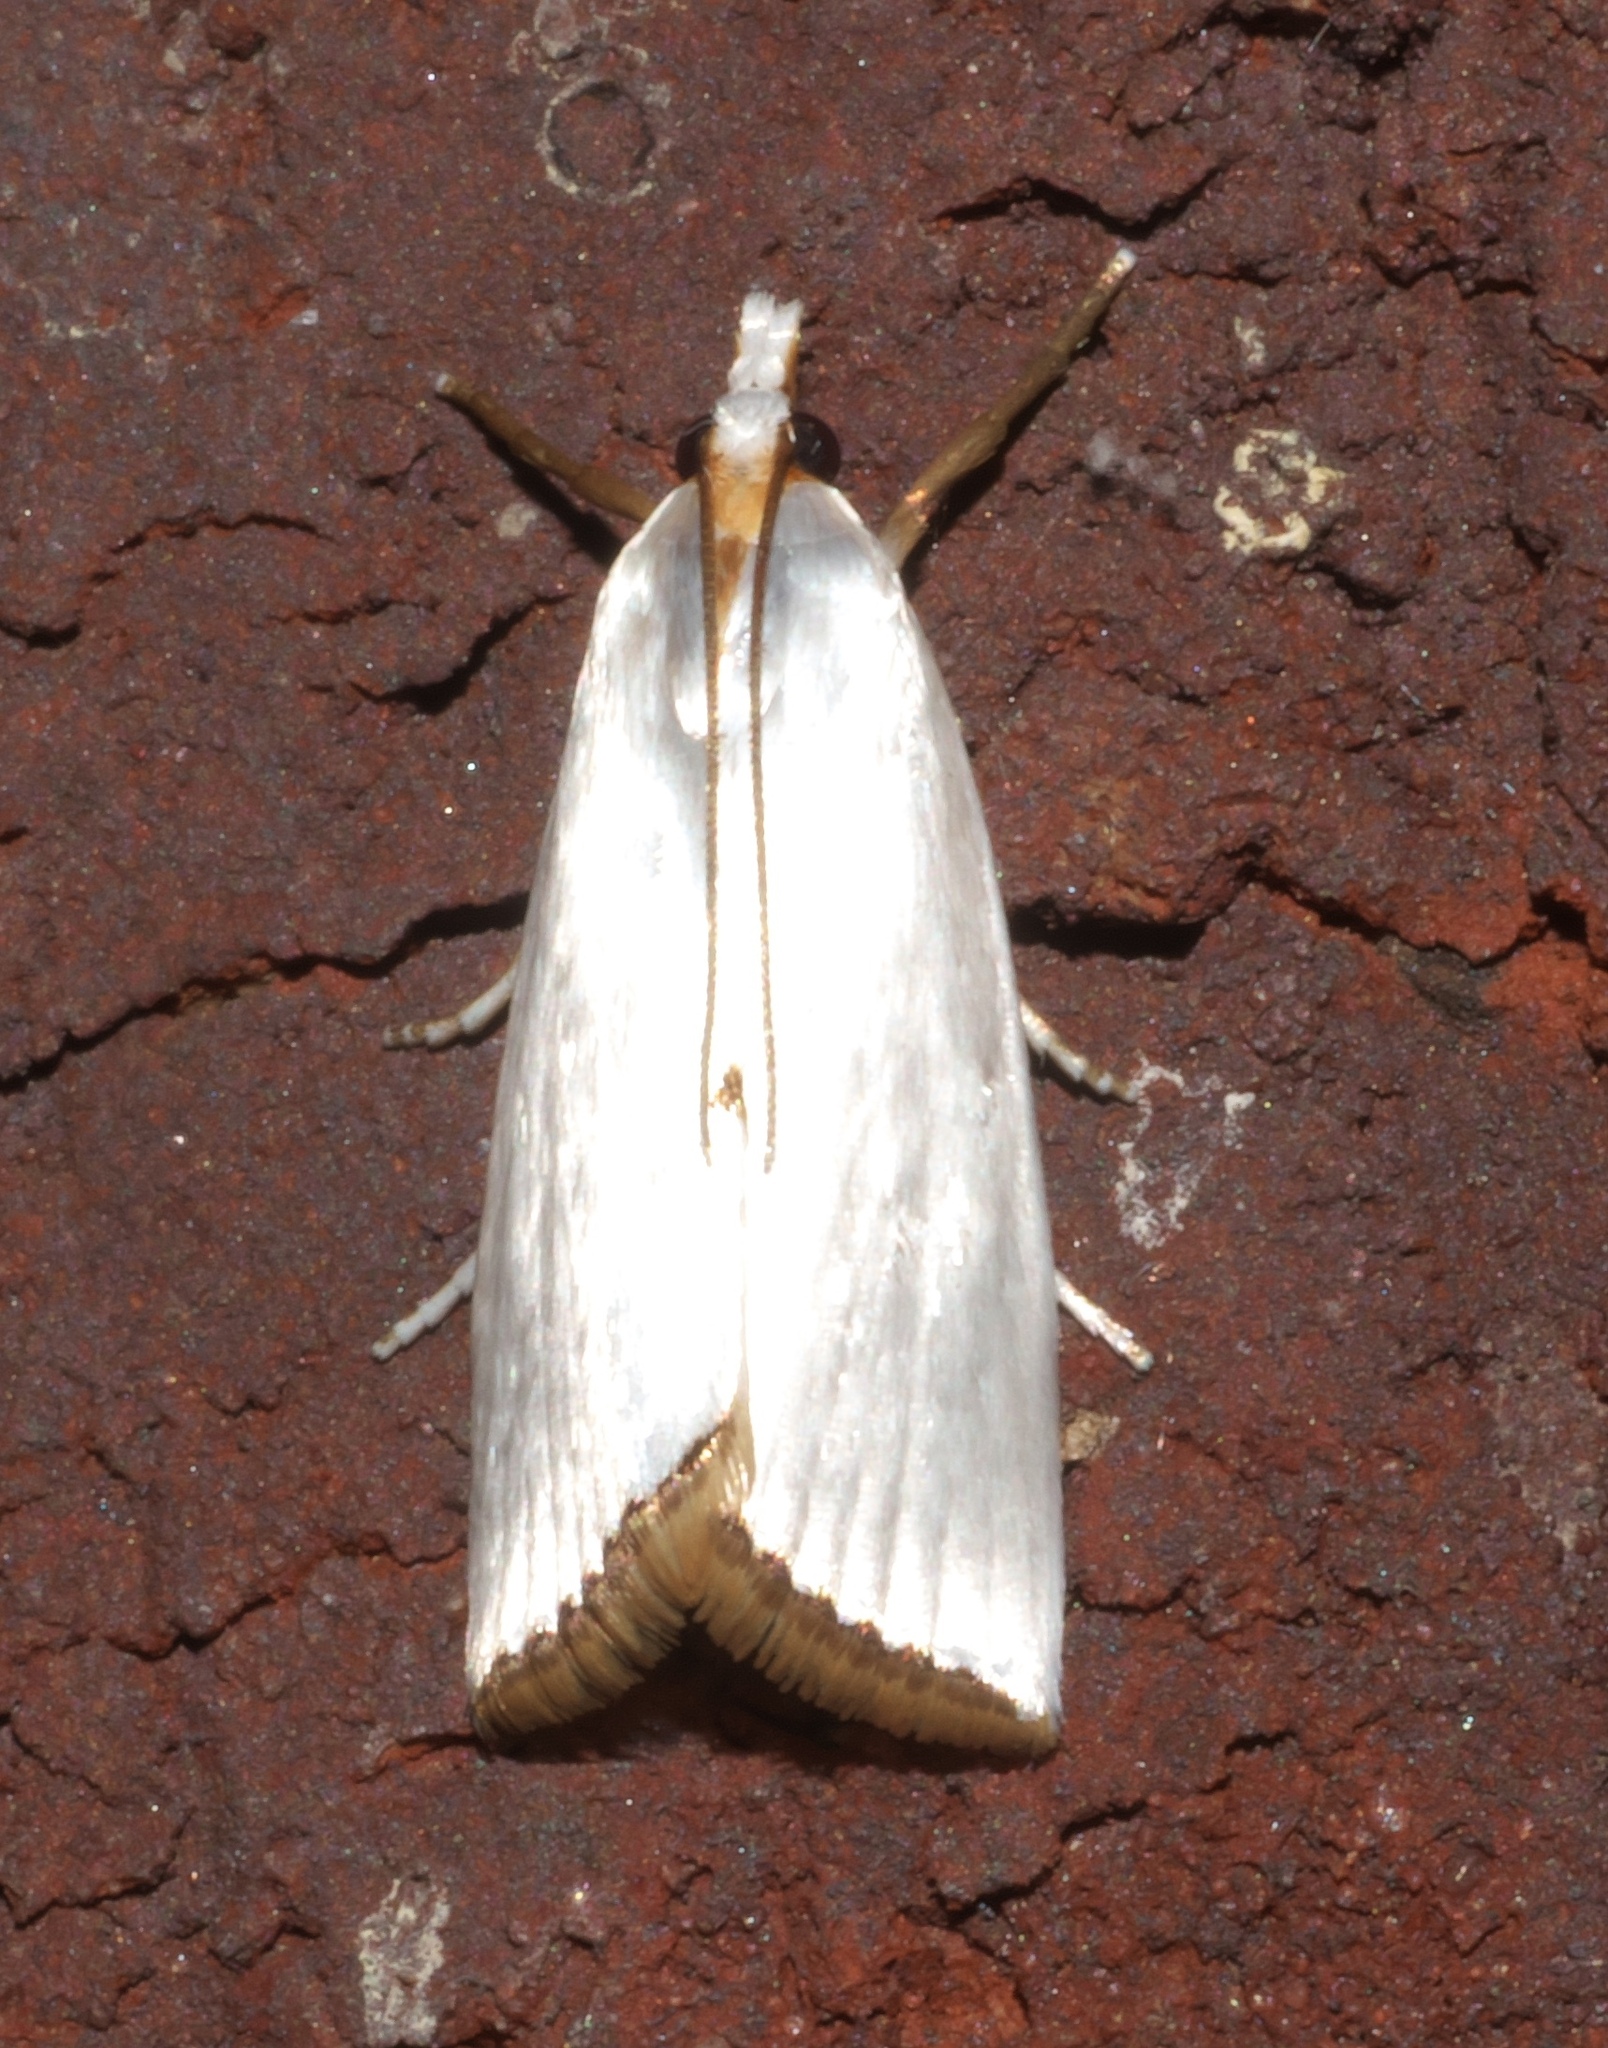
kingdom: Animalia
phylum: Arthropoda
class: Insecta
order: Lepidoptera
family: Crambidae
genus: Argyria
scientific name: Argyria nivalis
